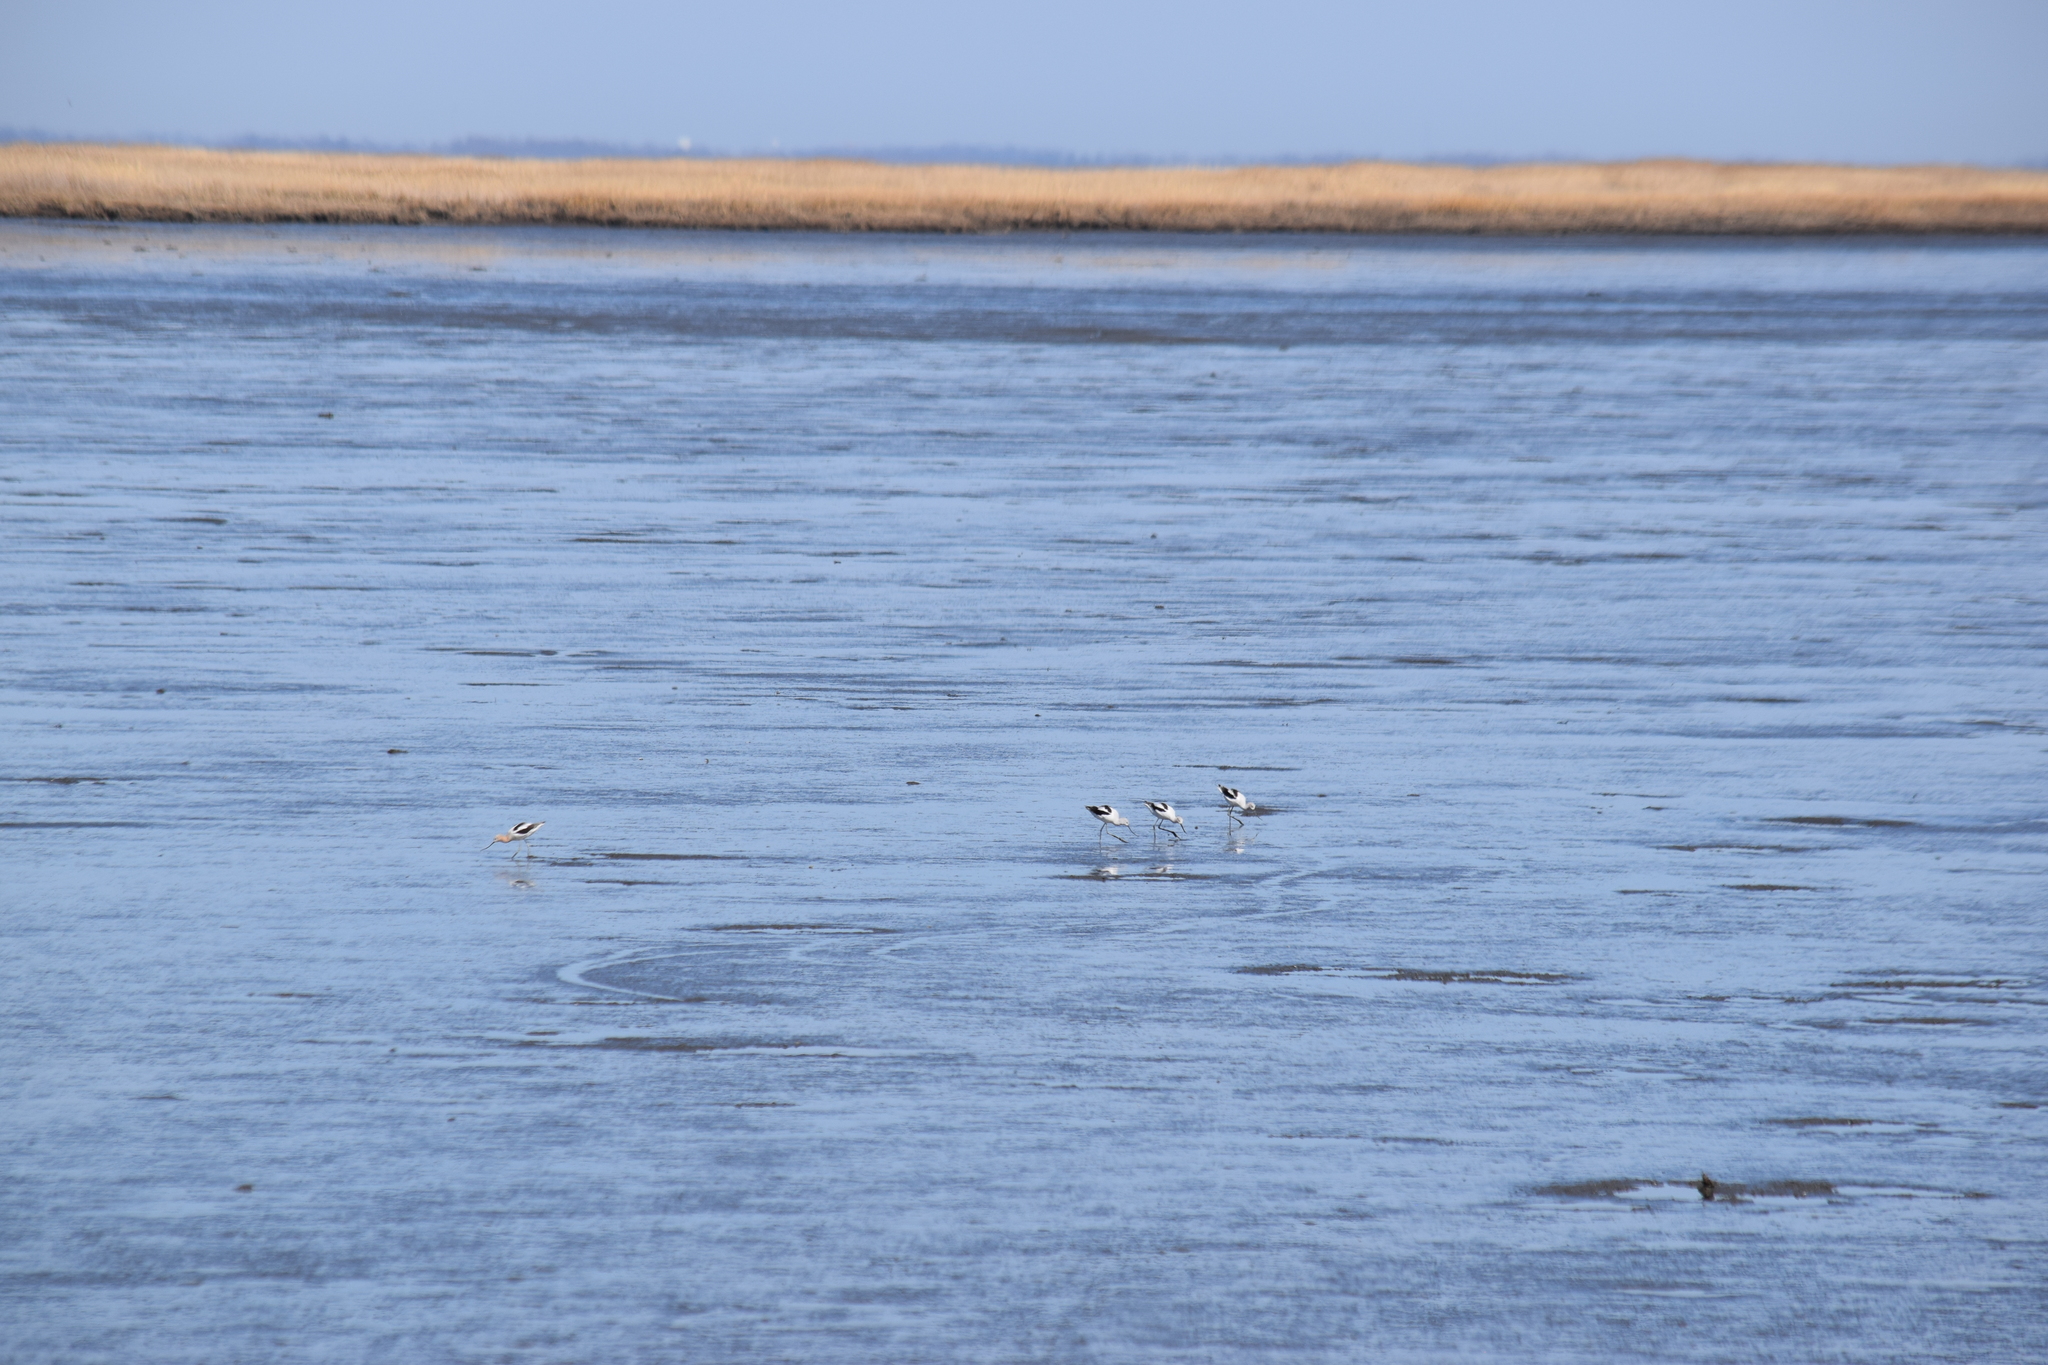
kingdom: Animalia
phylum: Chordata
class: Aves
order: Charadriiformes
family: Recurvirostridae
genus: Recurvirostra
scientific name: Recurvirostra americana
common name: American avocet
